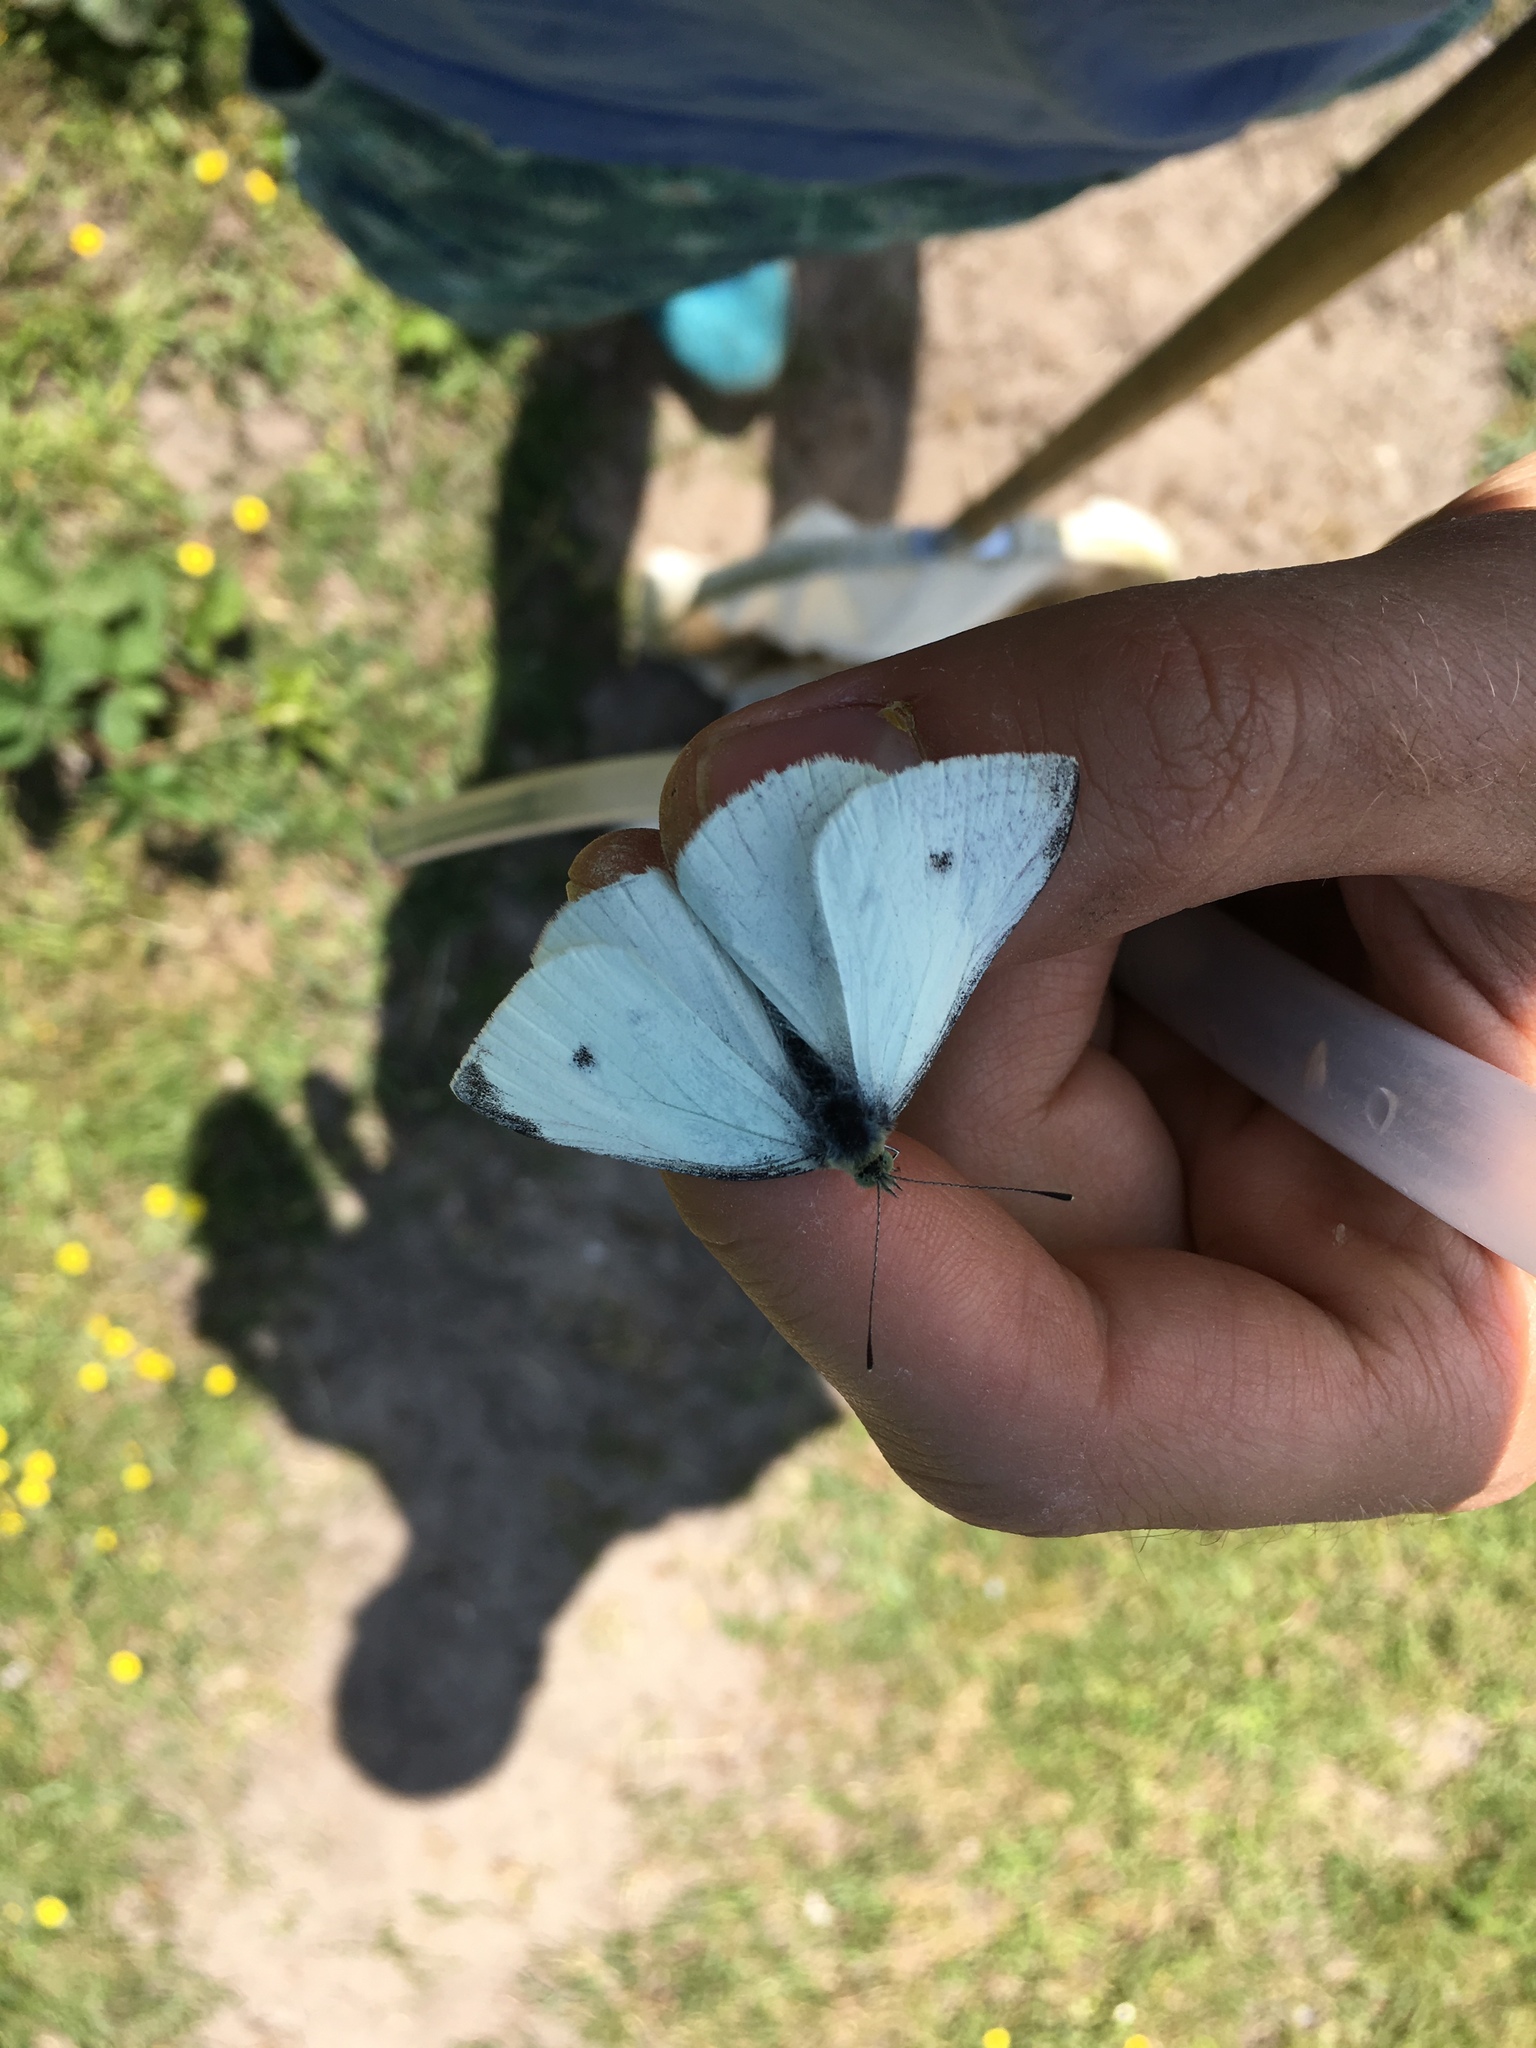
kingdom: Animalia
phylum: Arthropoda
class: Insecta
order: Lepidoptera
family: Pieridae
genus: Pieris
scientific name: Pieris rapae
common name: Small white
